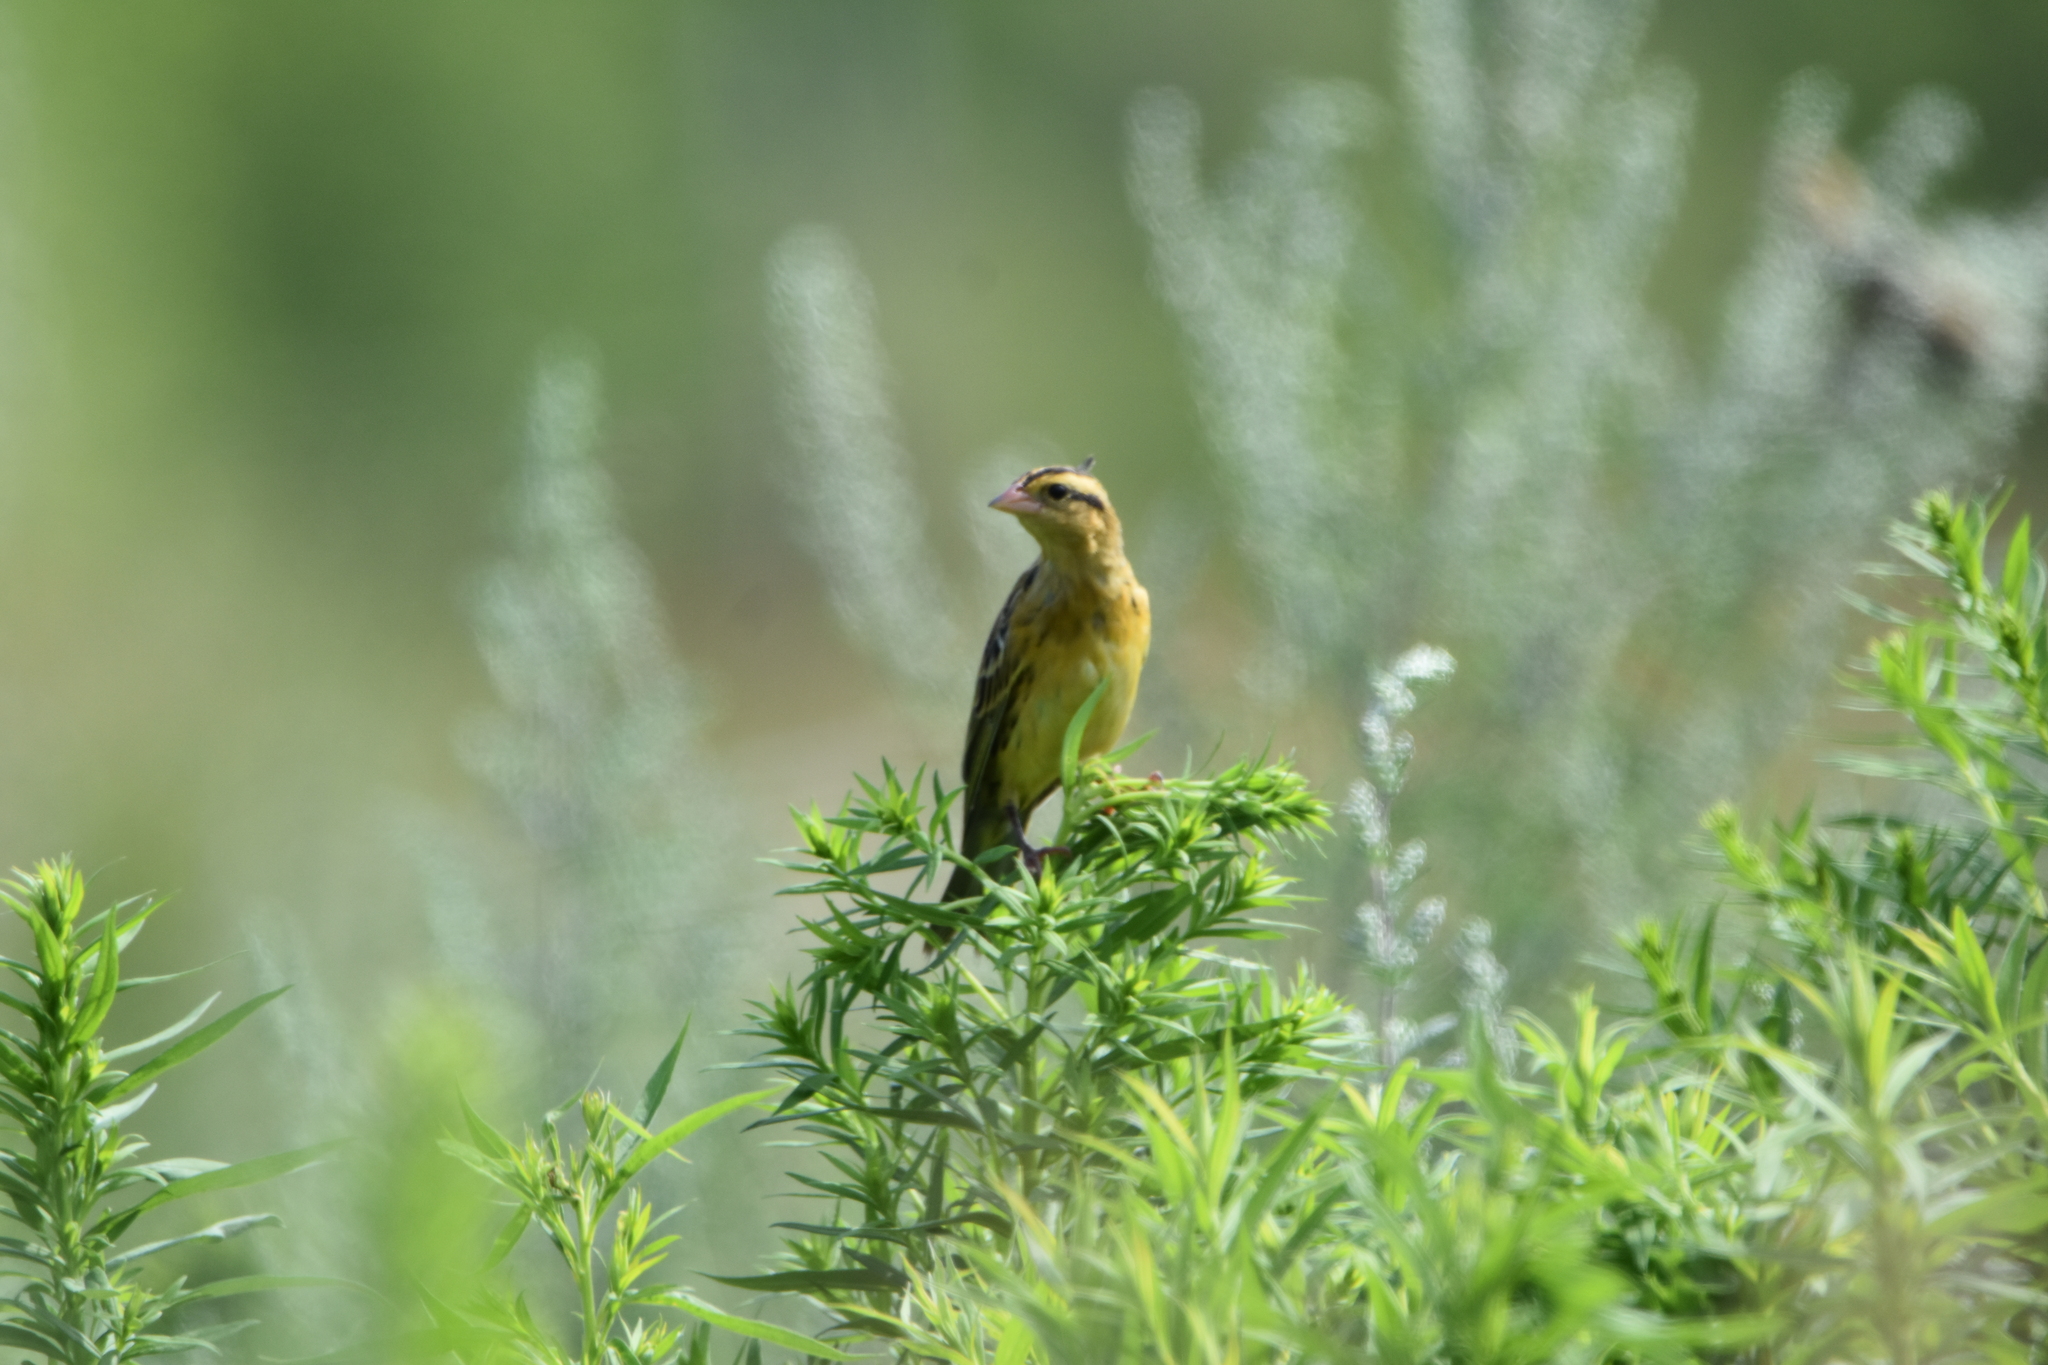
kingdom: Animalia
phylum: Chordata
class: Aves
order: Passeriformes
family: Icteridae
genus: Dolichonyx
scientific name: Dolichonyx oryzivorus
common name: Bobolink
